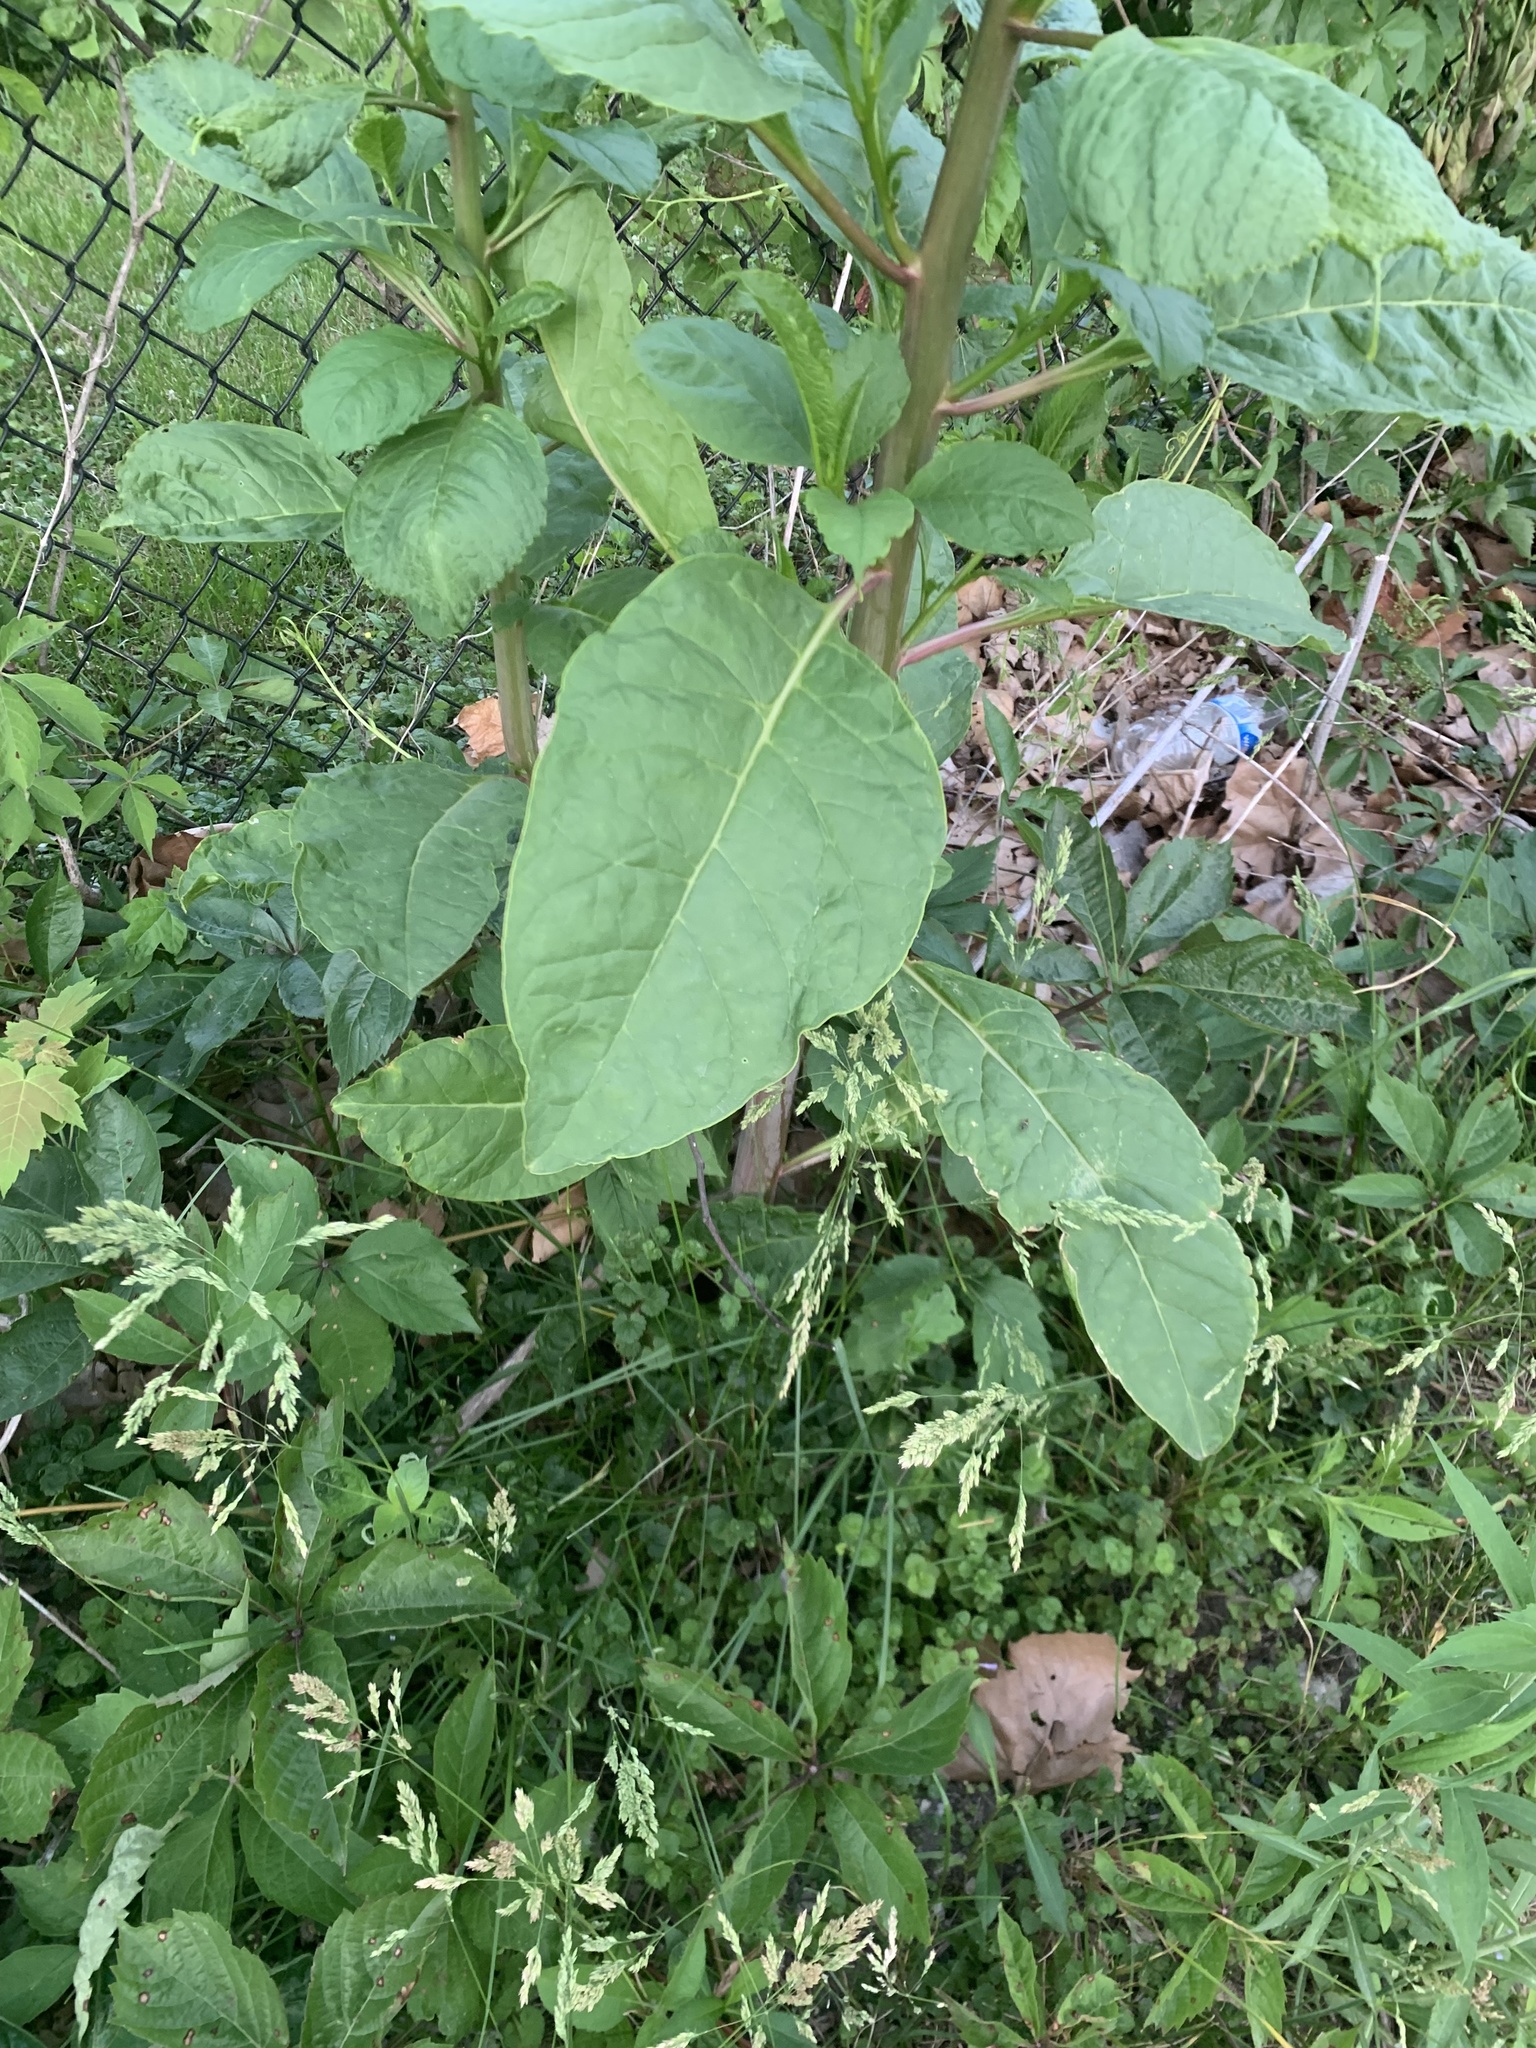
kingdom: Plantae
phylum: Tracheophyta
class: Magnoliopsida
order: Caryophyllales
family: Phytolaccaceae
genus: Phytolacca
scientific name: Phytolacca americana
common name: American pokeweed
